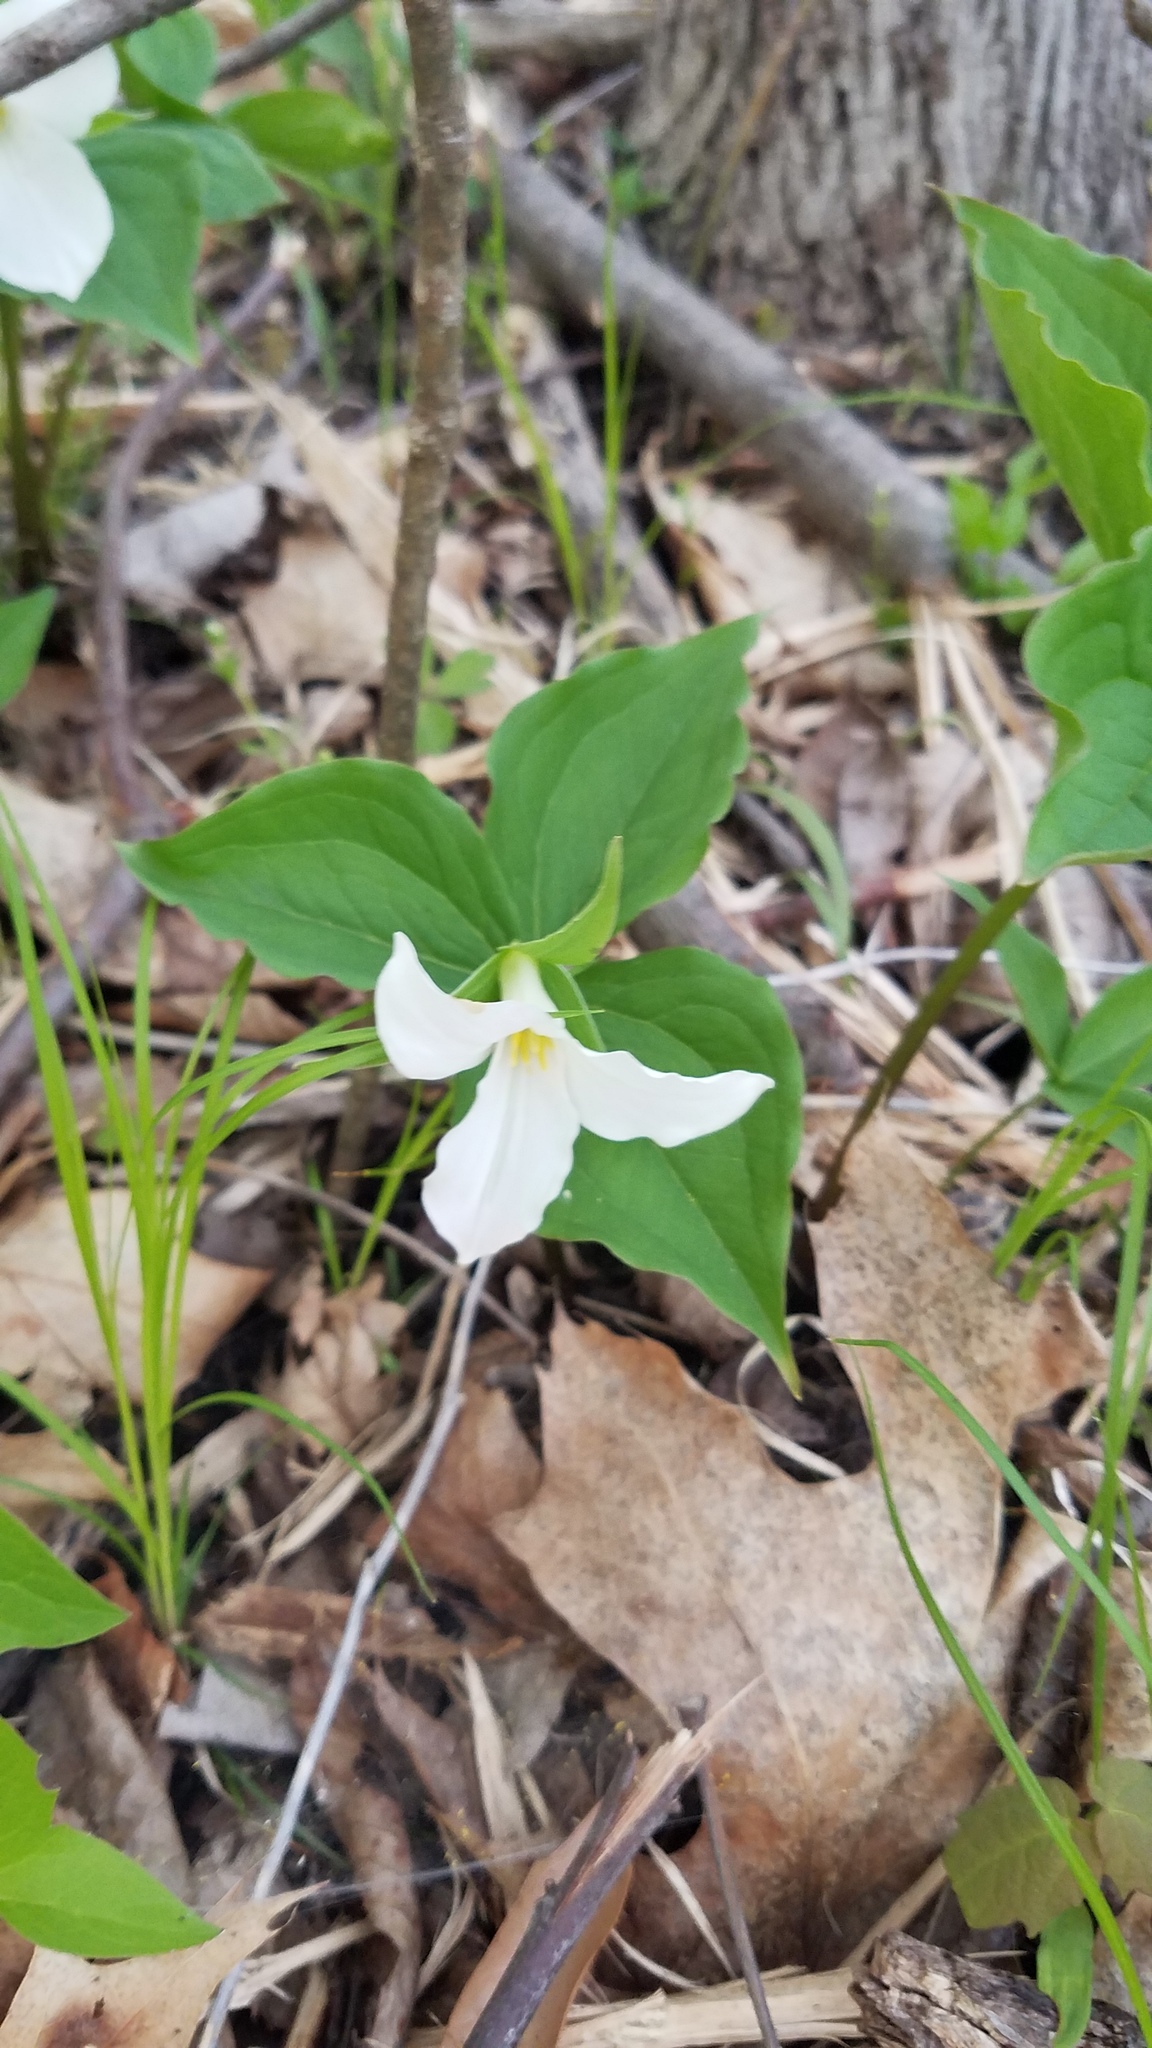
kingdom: Plantae
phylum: Tracheophyta
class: Liliopsida
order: Liliales
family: Melanthiaceae
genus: Trillium
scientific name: Trillium grandiflorum
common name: Great white trillium
